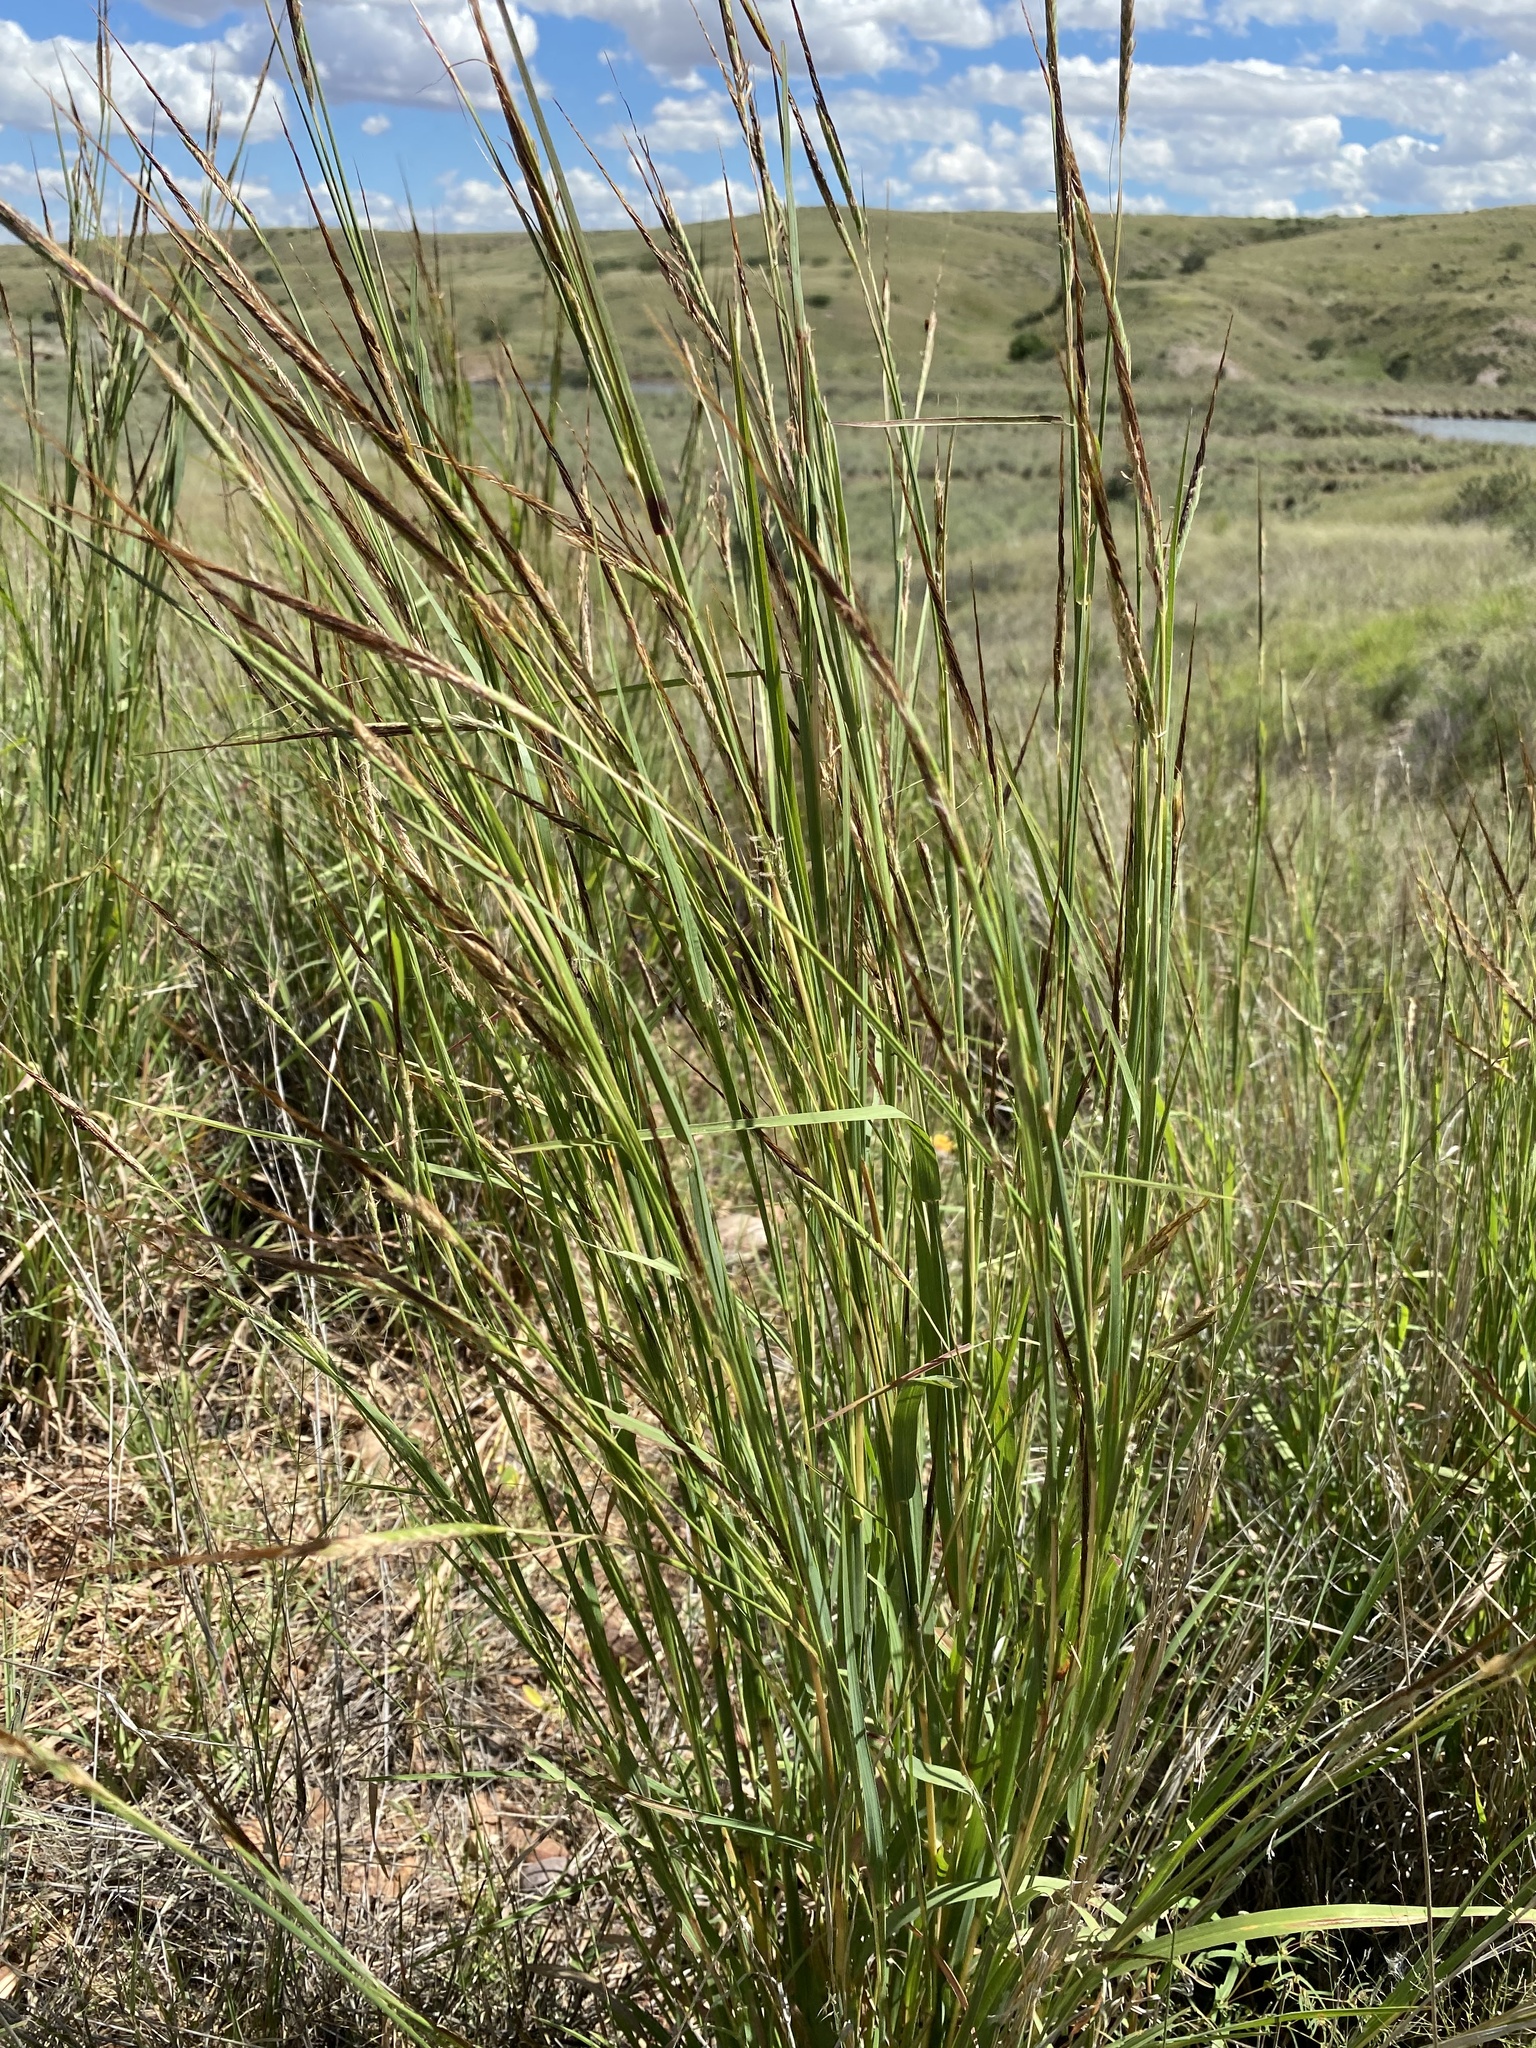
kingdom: Plantae
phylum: Tracheophyta
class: Liliopsida
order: Poales
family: Poaceae
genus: Heteropogon
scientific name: Heteropogon contortus
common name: Tanglehead
